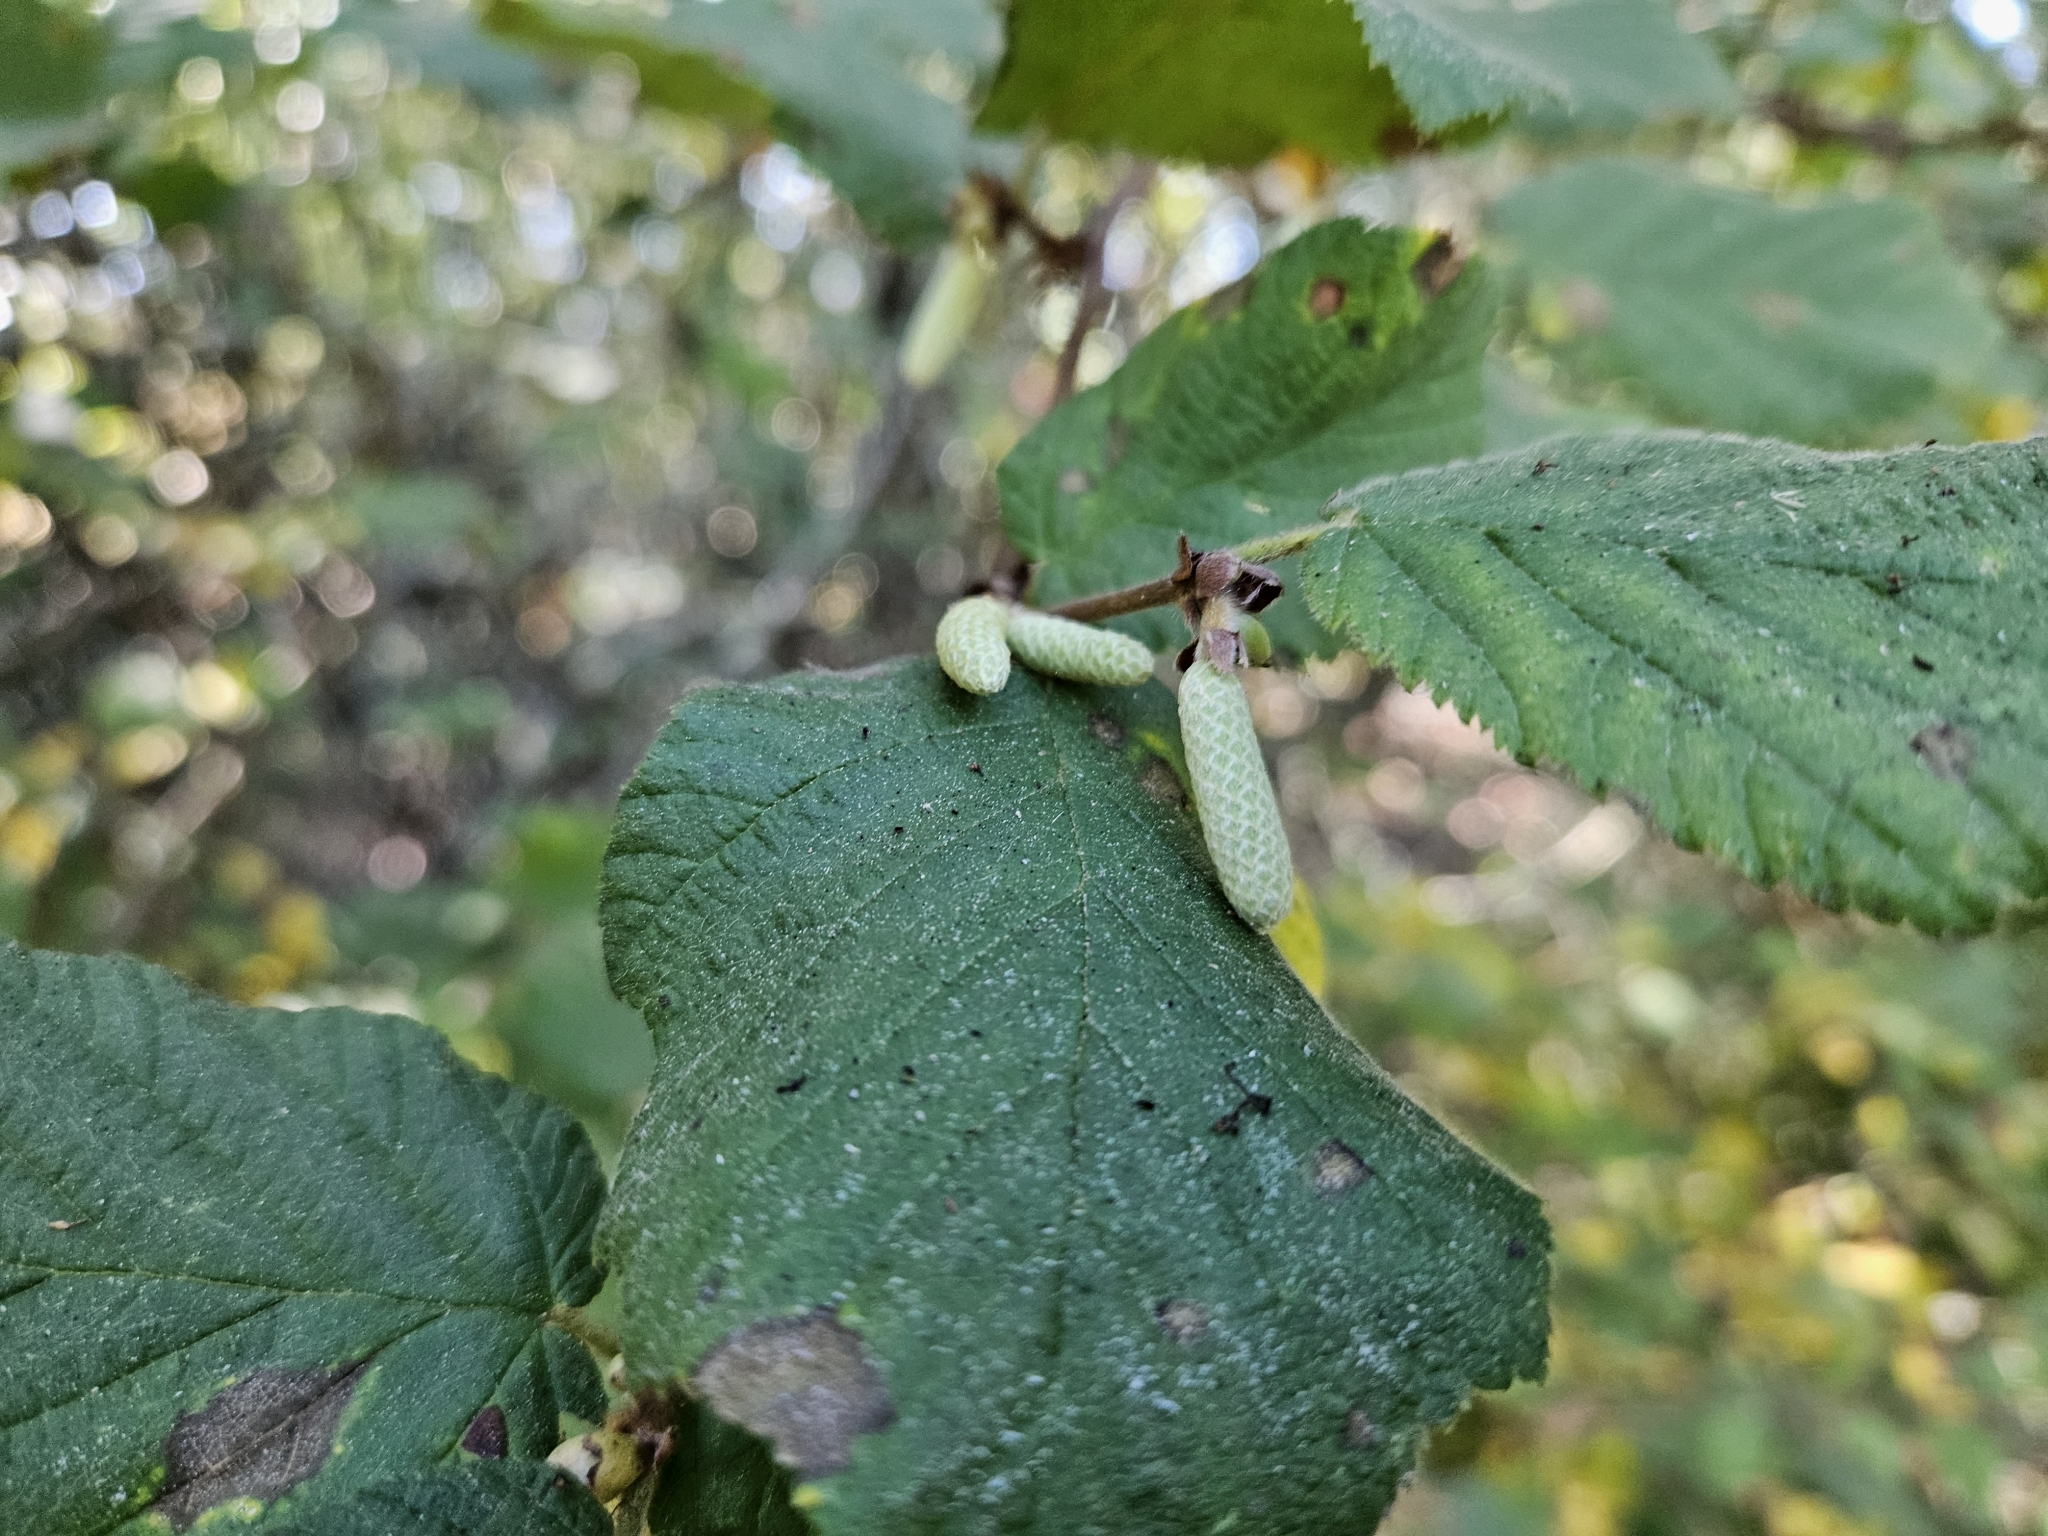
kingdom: Plantae
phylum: Tracheophyta
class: Magnoliopsida
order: Fagales
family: Betulaceae
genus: Corylus
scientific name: Corylus cornuta
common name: Beaked hazel
